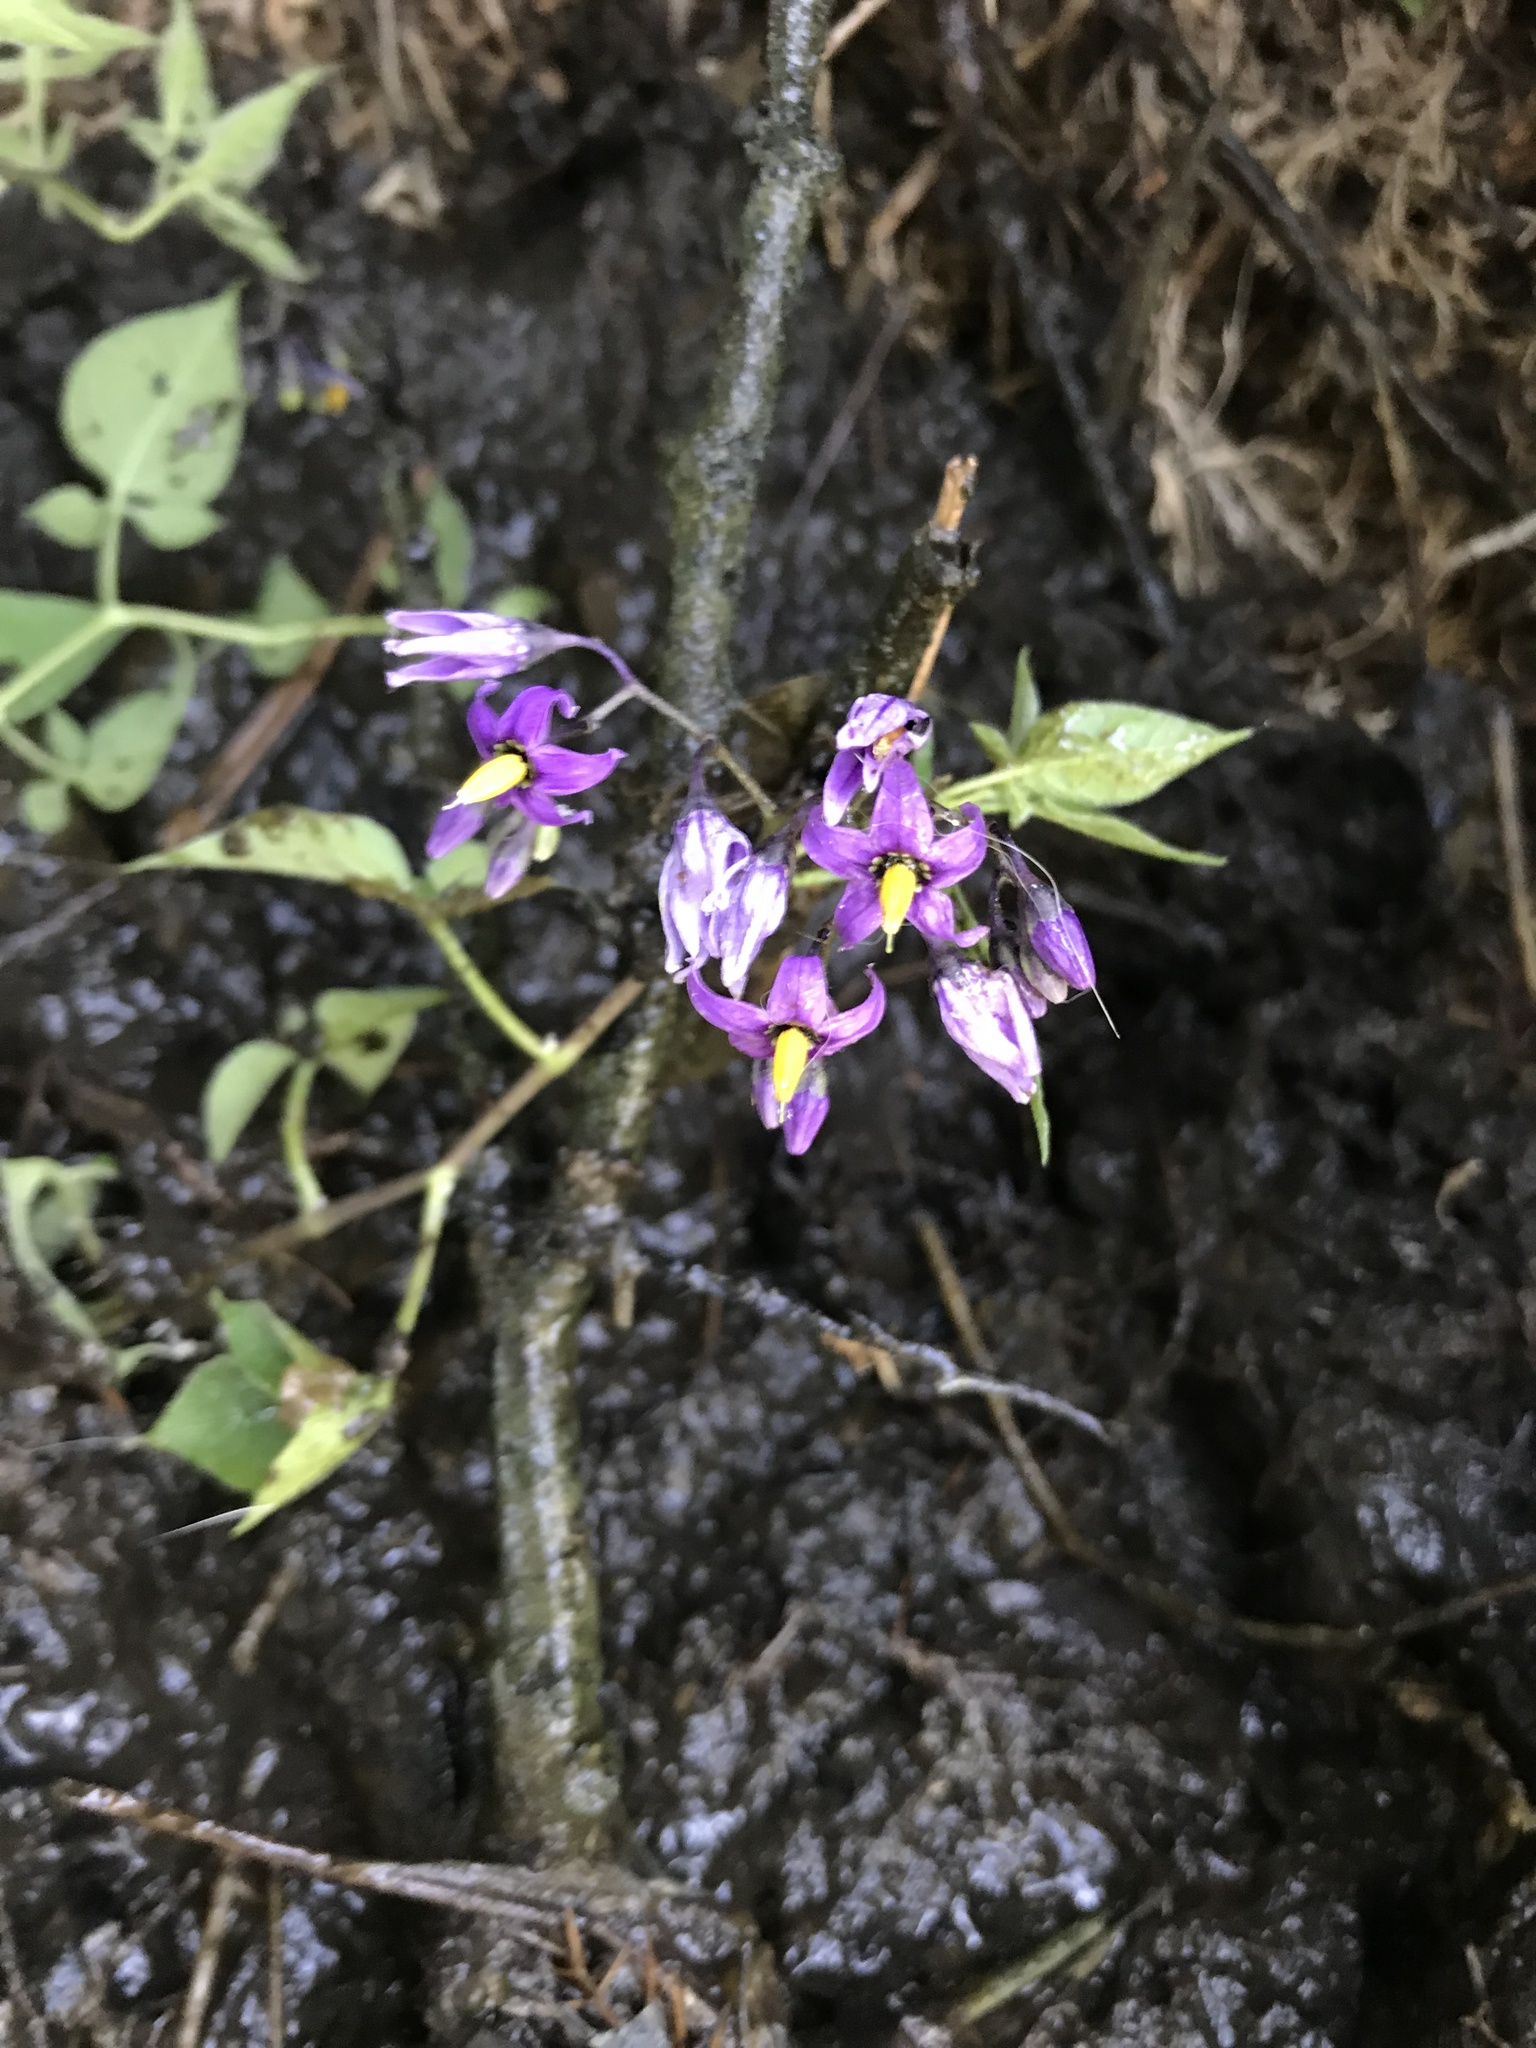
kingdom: Plantae
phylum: Tracheophyta
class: Magnoliopsida
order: Solanales
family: Solanaceae
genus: Solanum
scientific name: Solanum dulcamara
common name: Climbing nightshade
